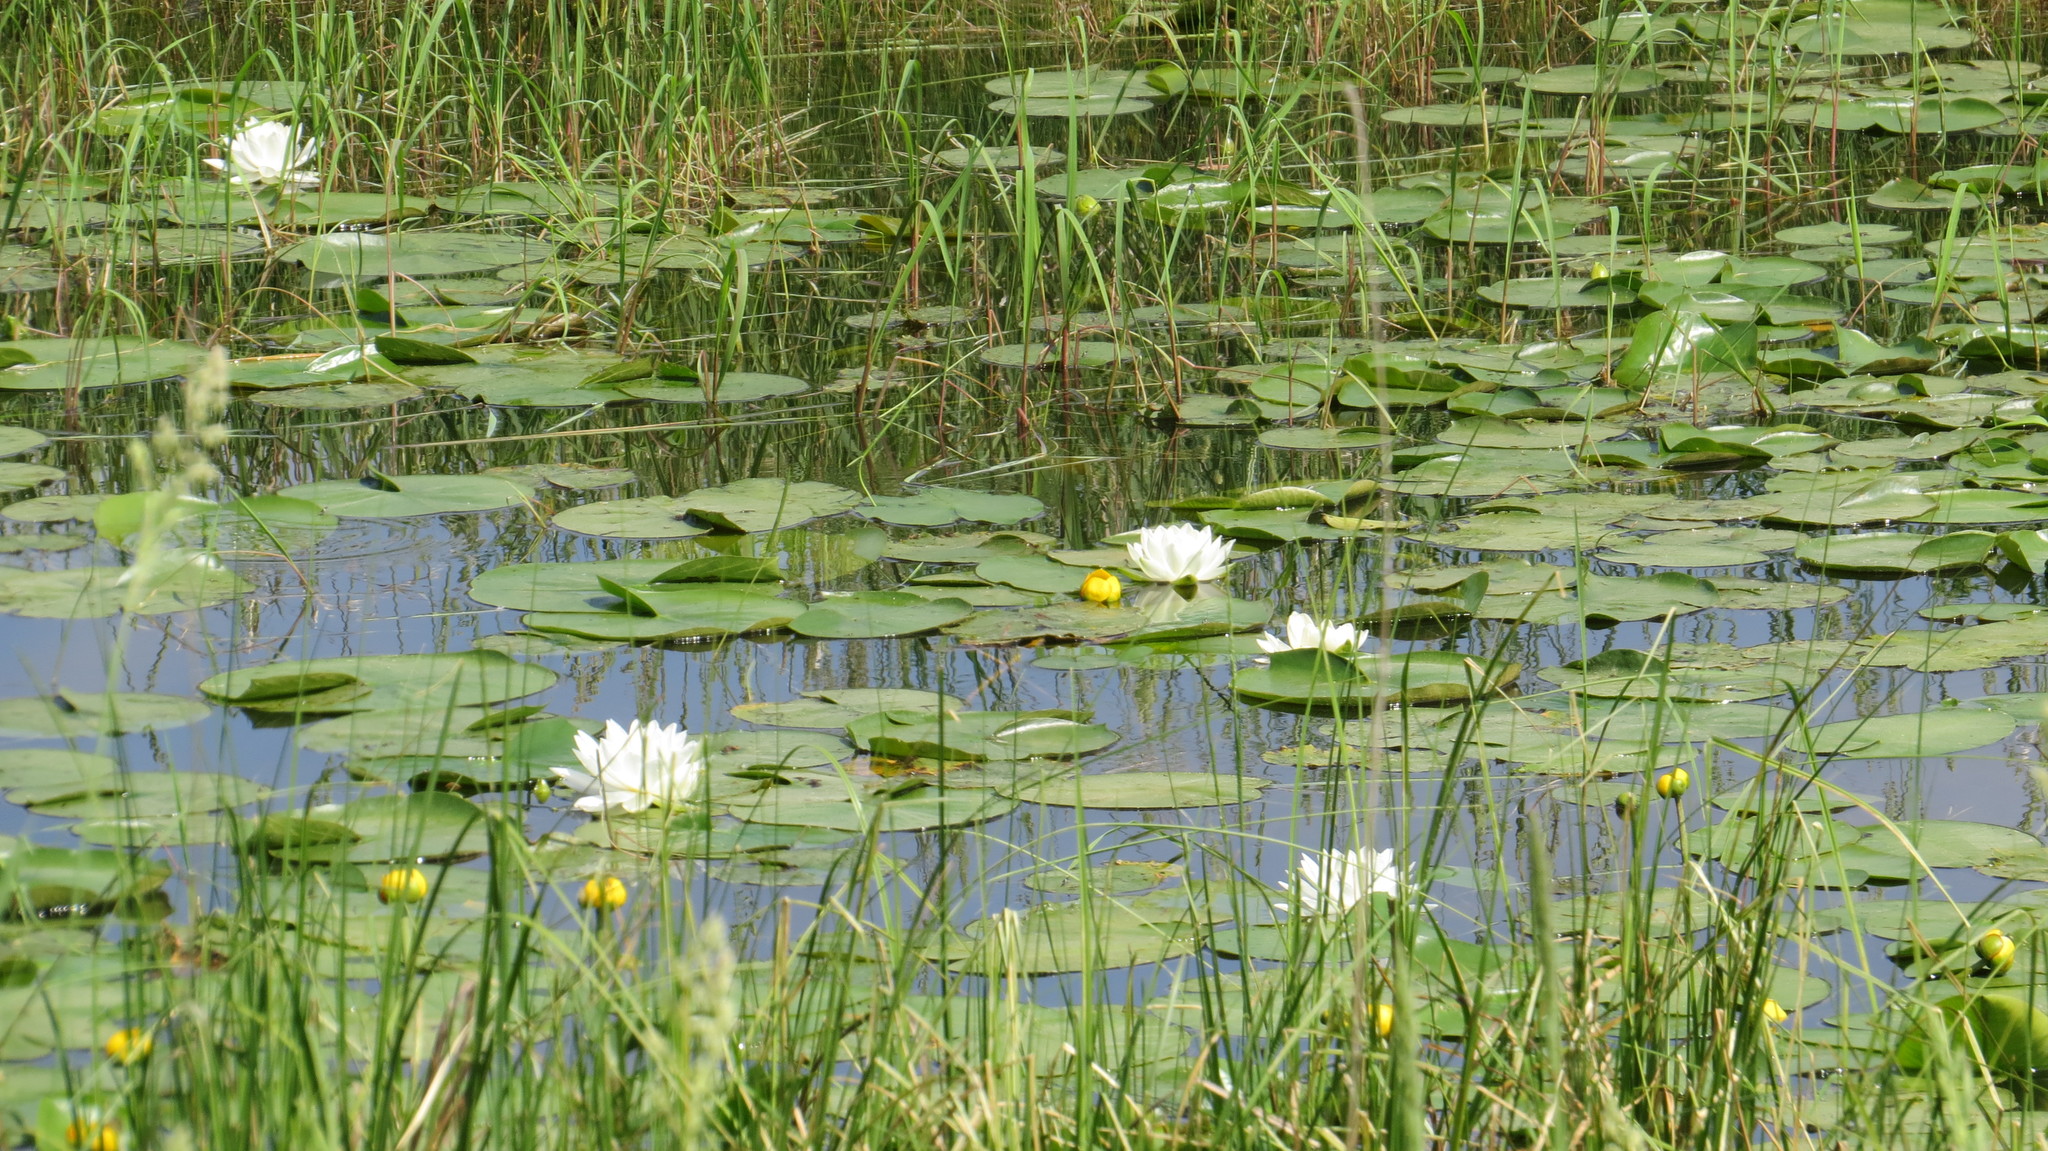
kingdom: Plantae
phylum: Tracheophyta
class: Magnoliopsida
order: Nymphaeales
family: Nymphaeaceae
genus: Nymphaea
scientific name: Nymphaea odorata
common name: Fragrant water-lily
